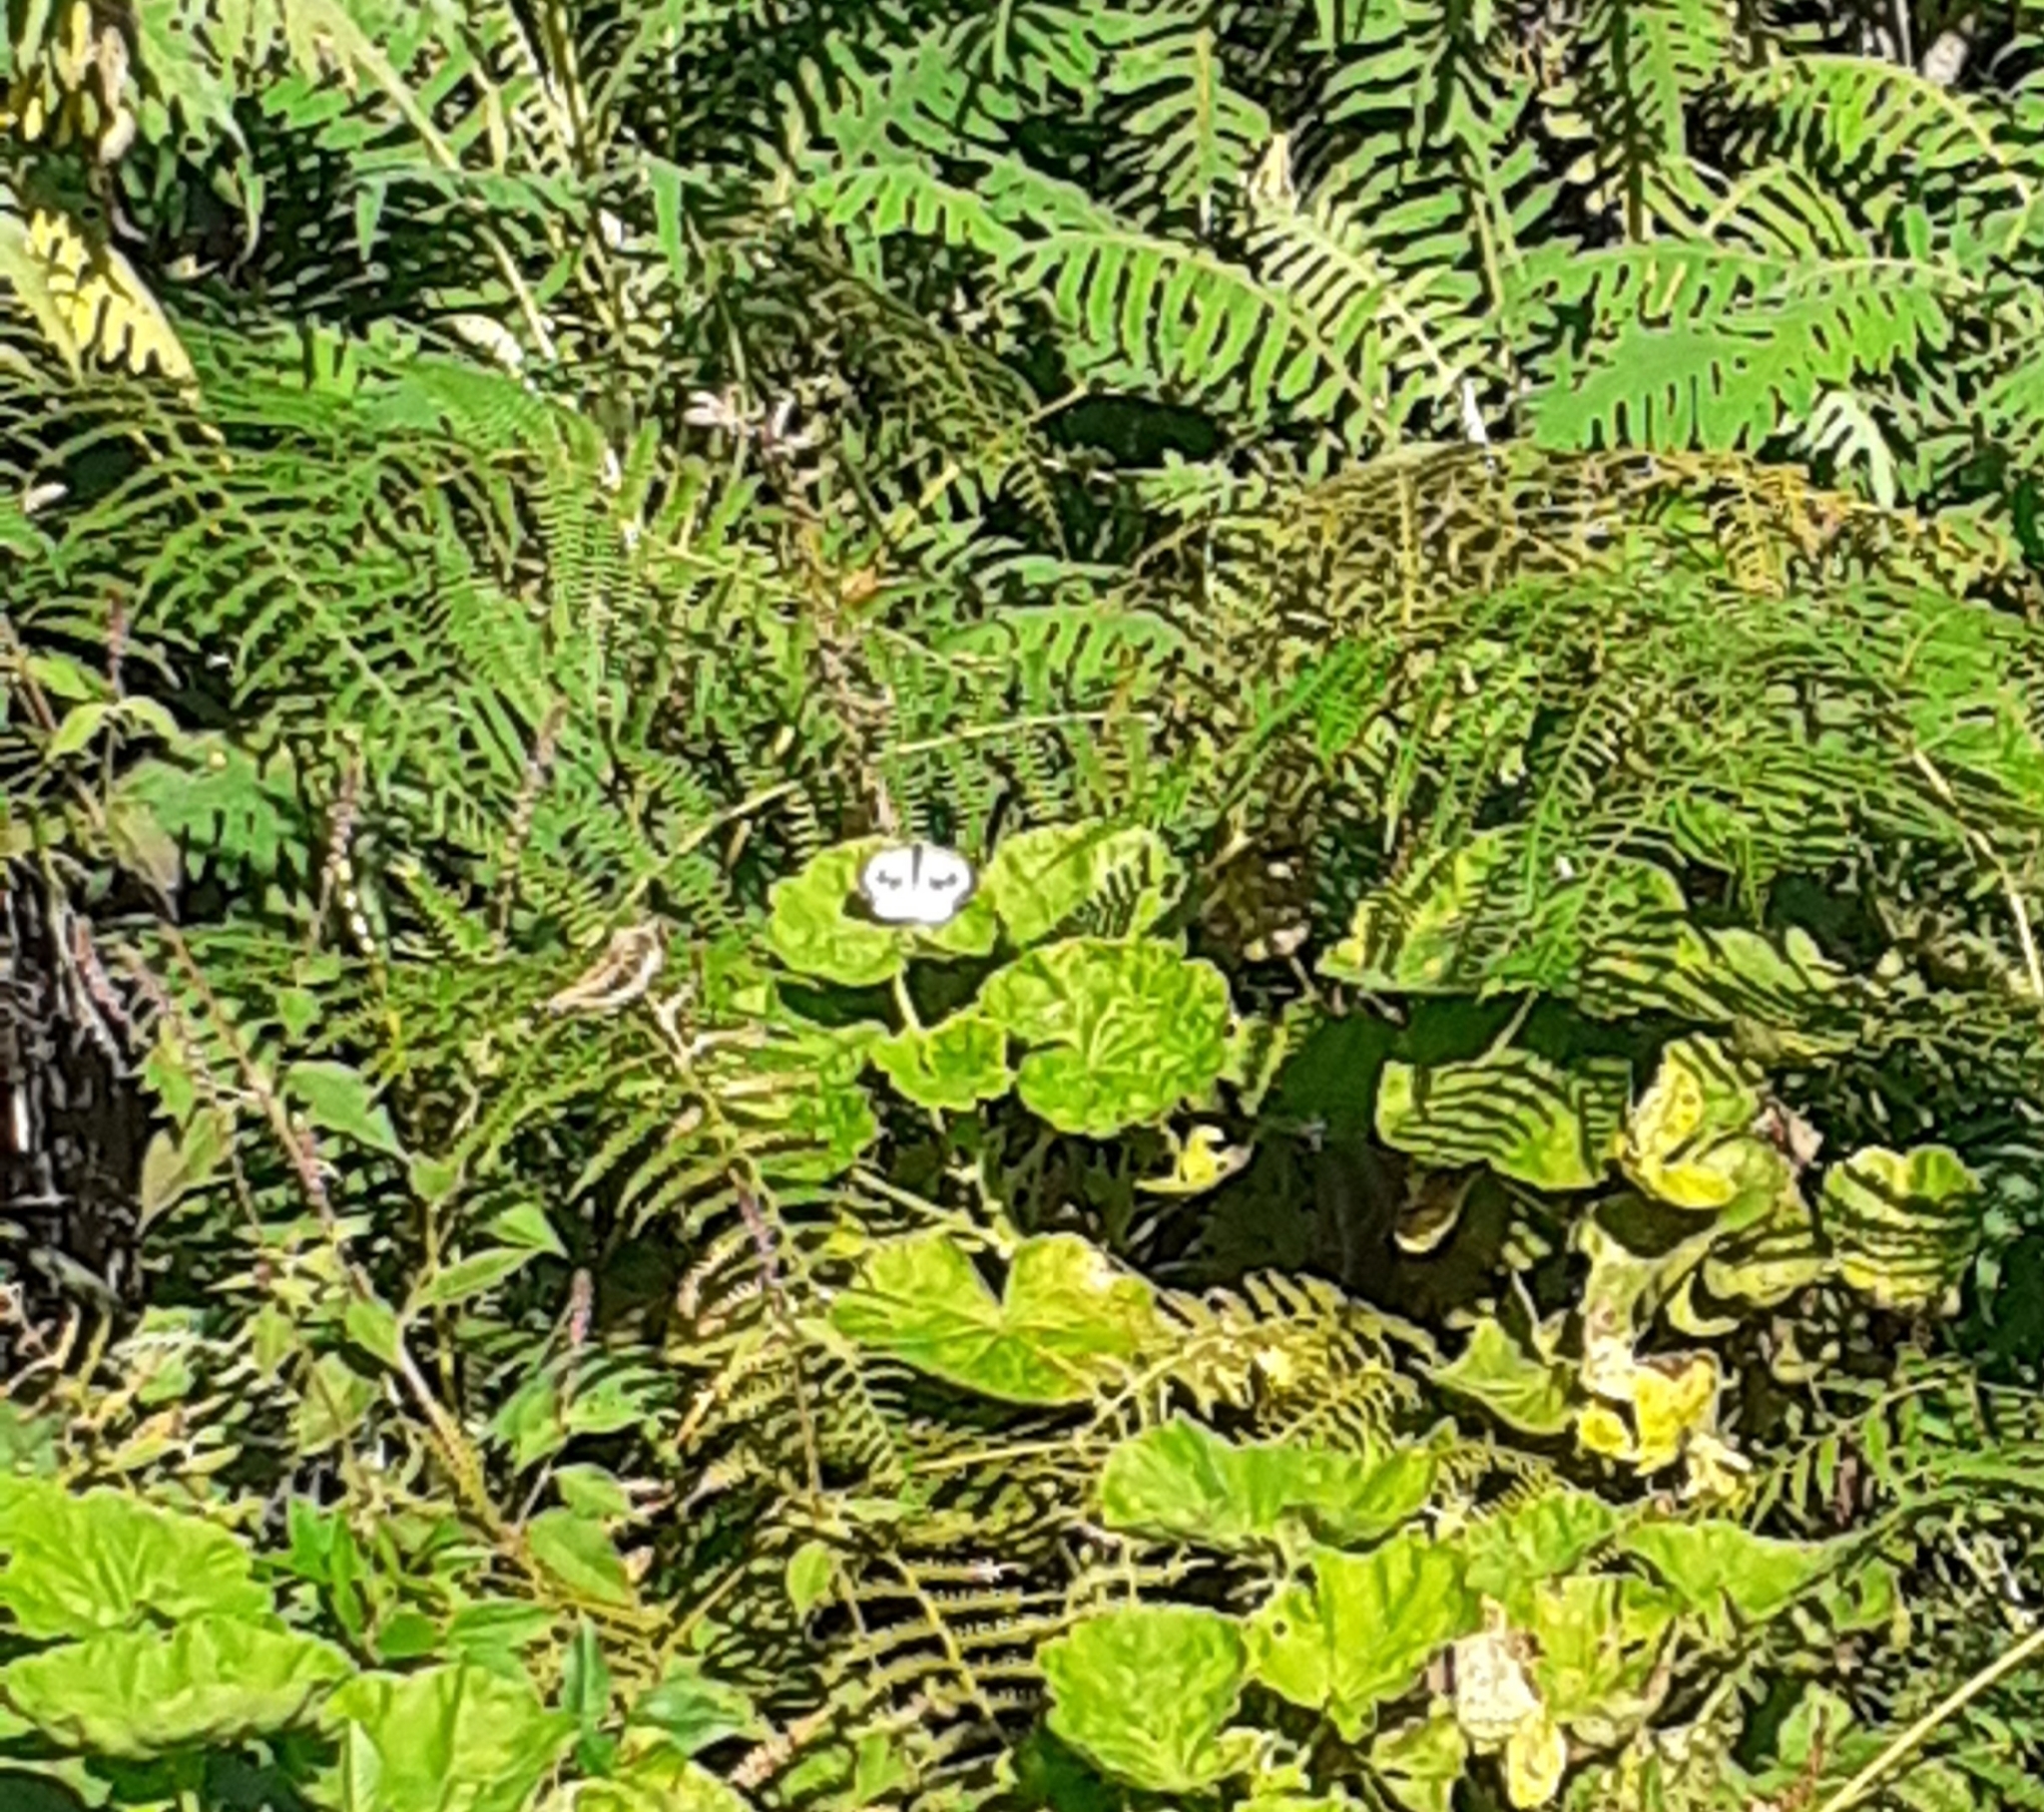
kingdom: Animalia
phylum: Arthropoda
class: Insecta
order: Lepidoptera
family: Pieridae
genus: Pieris
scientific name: Pieris cheiranthi
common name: Canary islands large white
